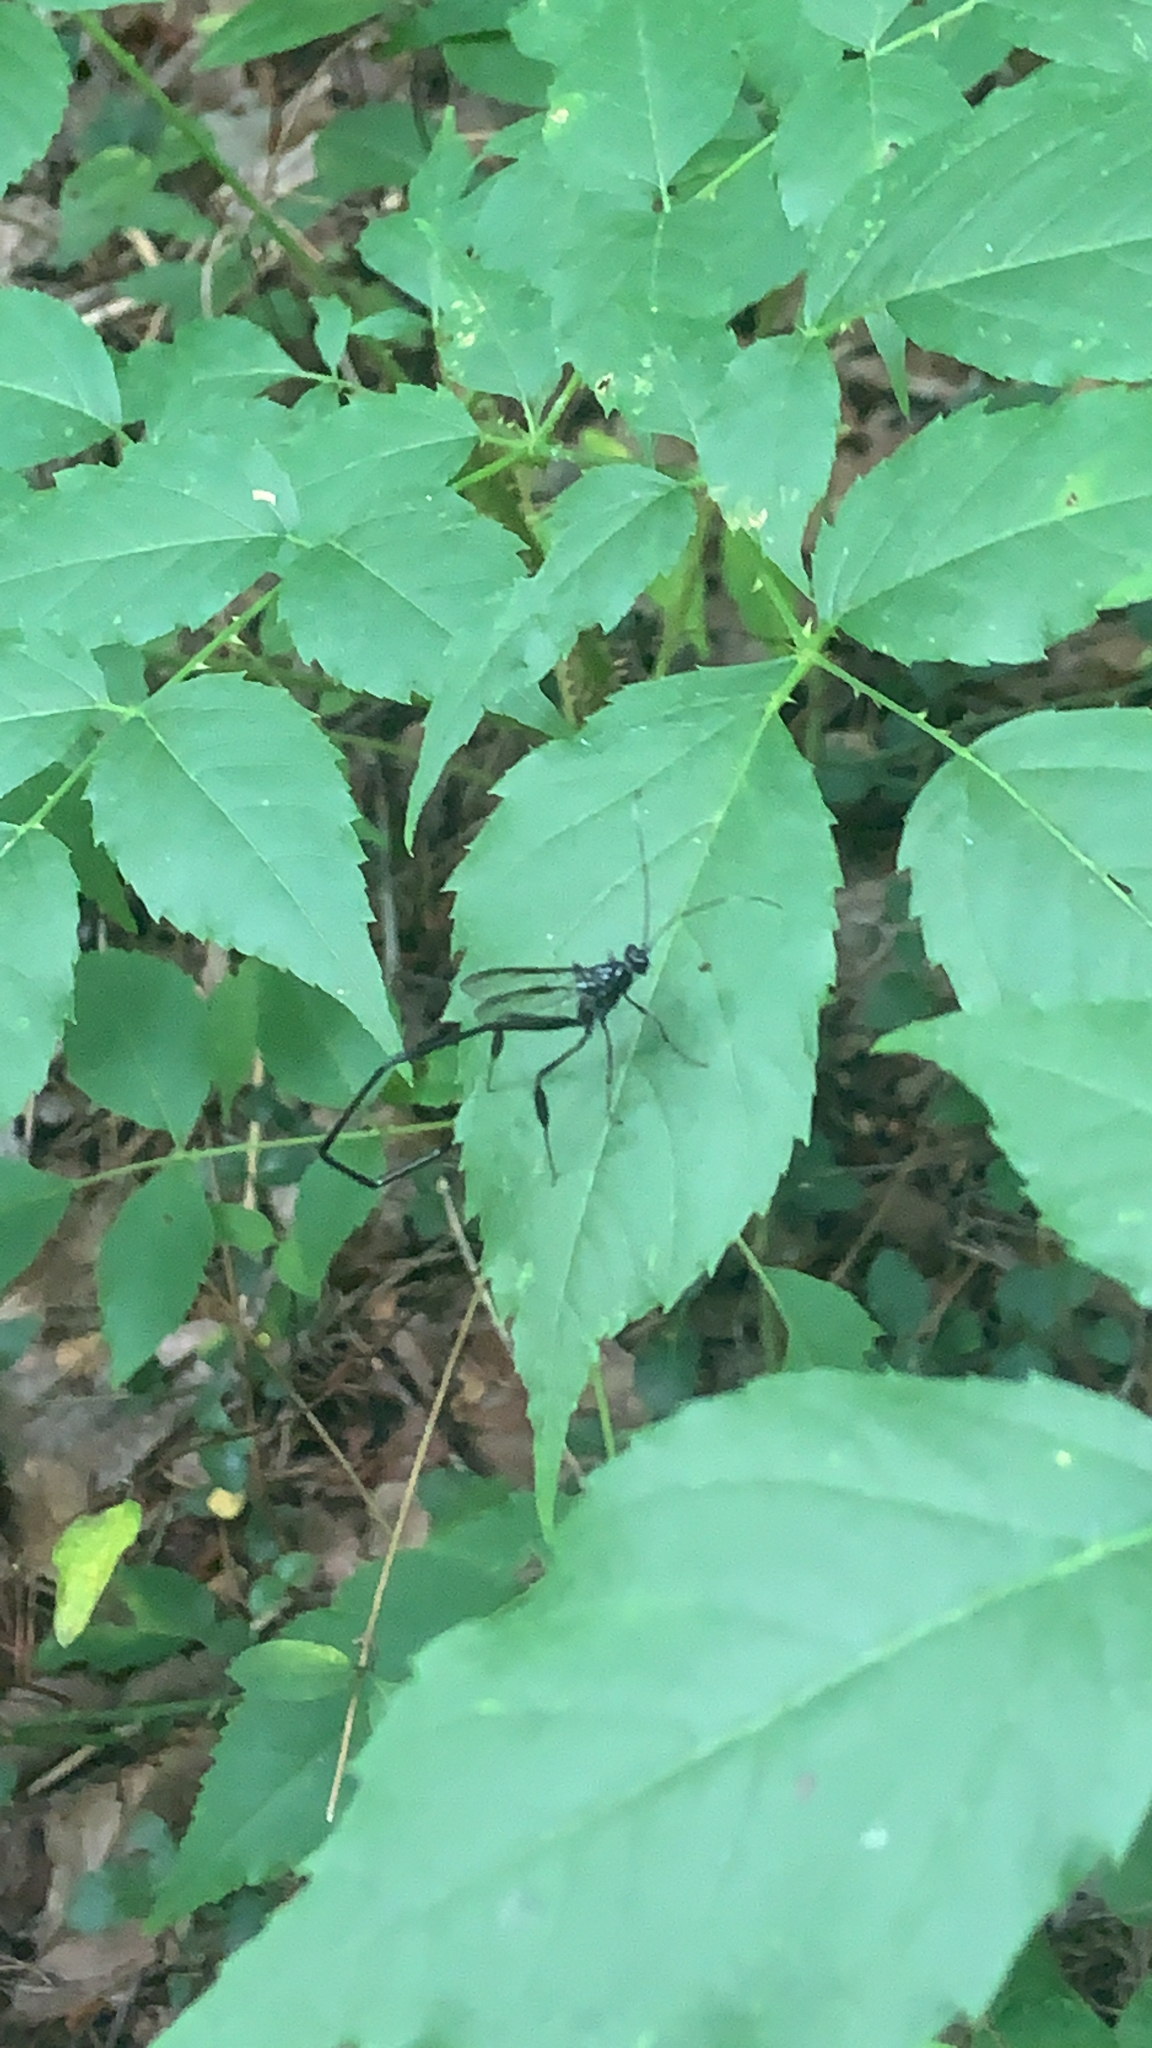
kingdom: Animalia
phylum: Arthropoda
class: Insecta
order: Hymenoptera
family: Pelecinidae
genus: Pelecinus
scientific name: Pelecinus polyturator
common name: American pelecinid wasp
